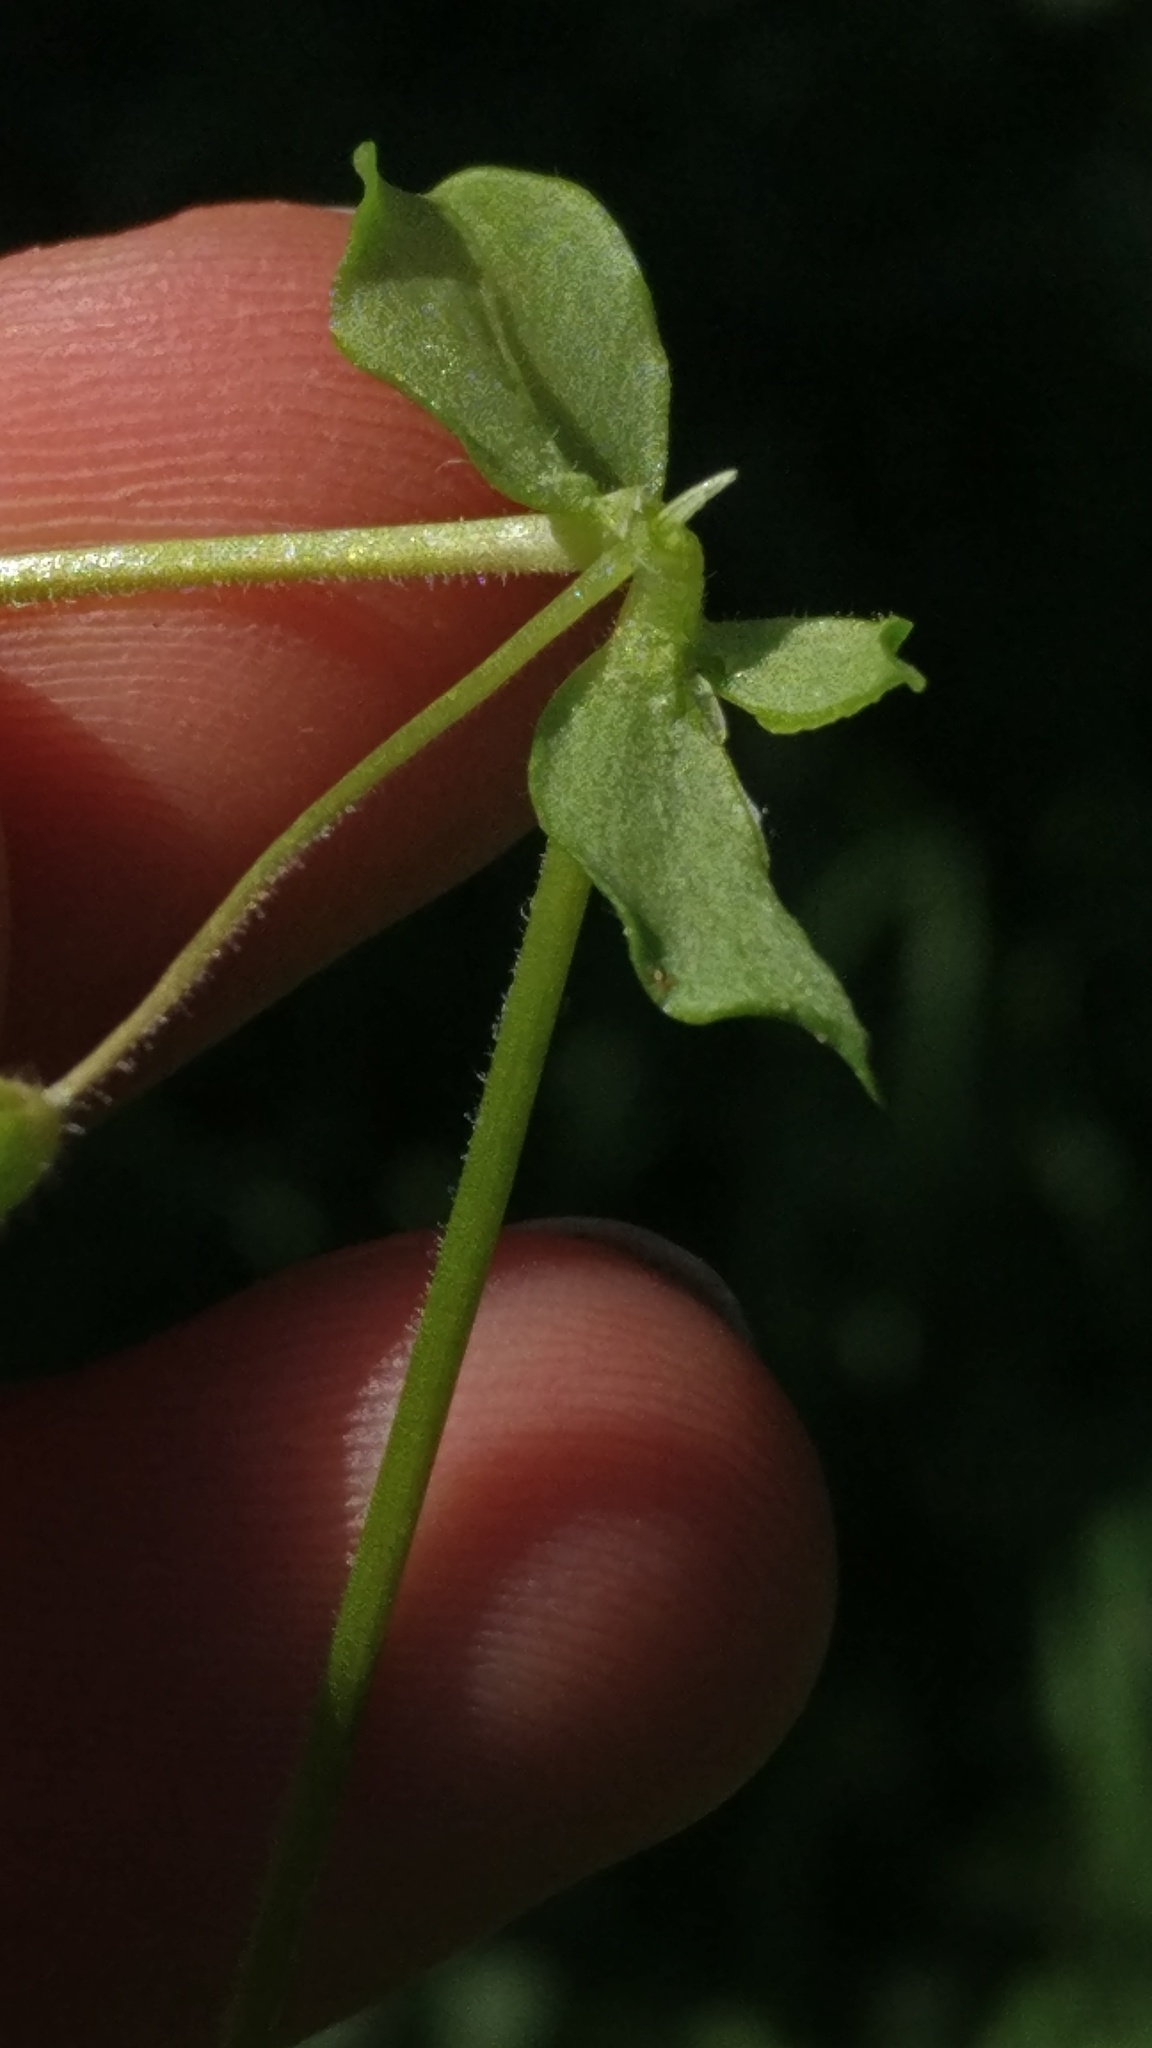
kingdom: Plantae
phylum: Tracheophyta
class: Magnoliopsida
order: Caryophyllales
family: Caryophyllaceae
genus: Stellaria
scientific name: Stellaria media
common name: Common chickweed
